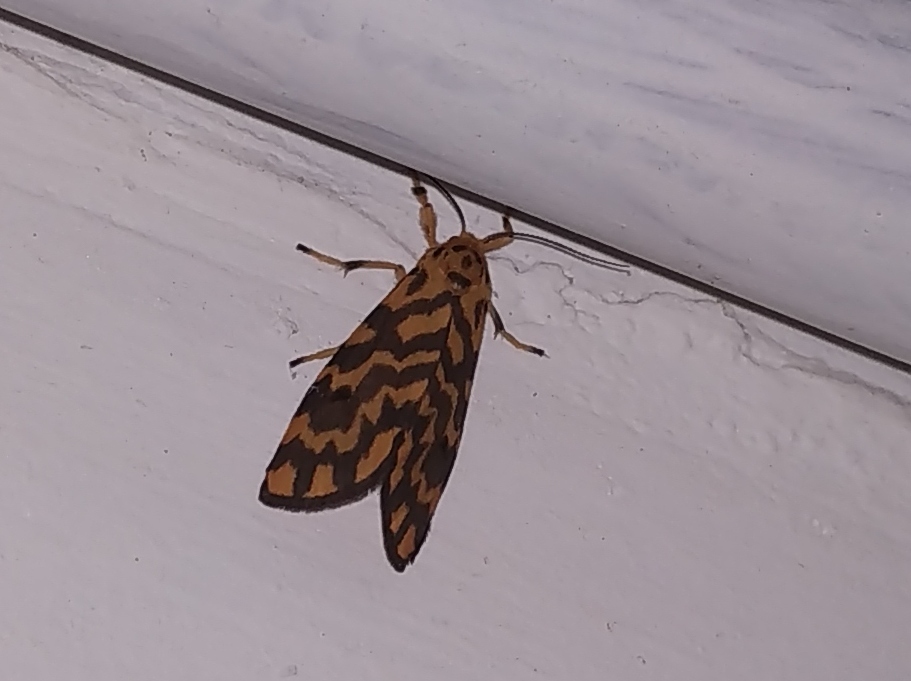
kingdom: Animalia
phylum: Arthropoda
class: Insecta
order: Lepidoptera
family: Erebidae
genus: Nepita
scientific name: Nepita conferta
